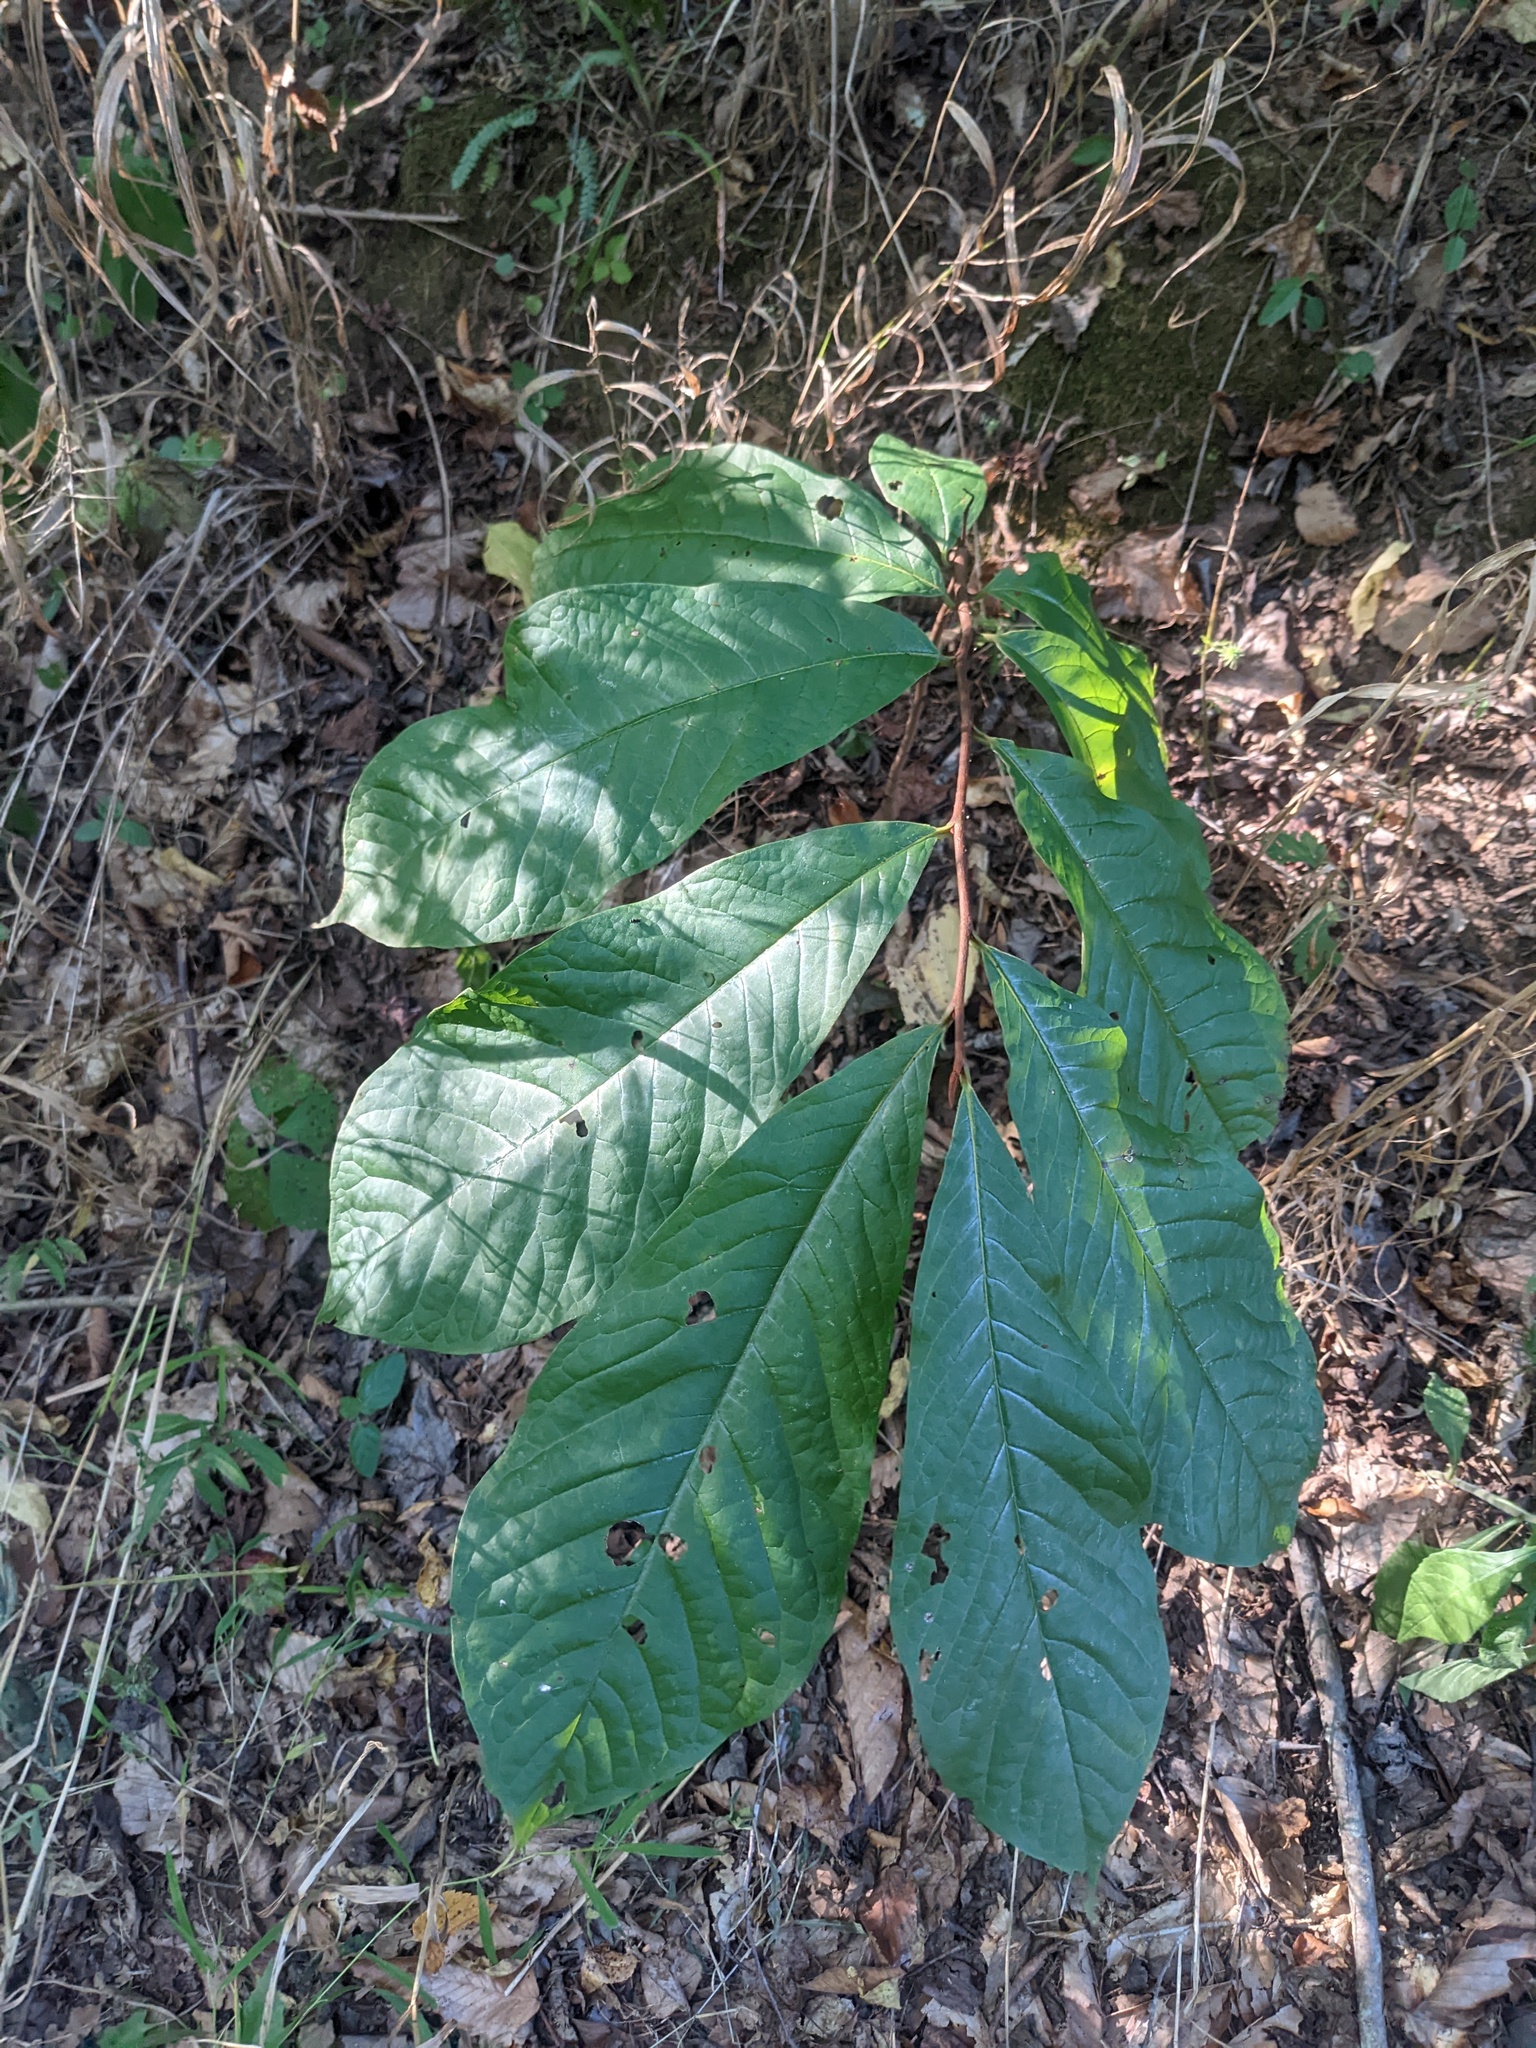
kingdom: Plantae
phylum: Tracheophyta
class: Magnoliopsida
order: Magnoliales
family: Annonaceae
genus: Asimina
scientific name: Asimina triloba
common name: Dog-banana
